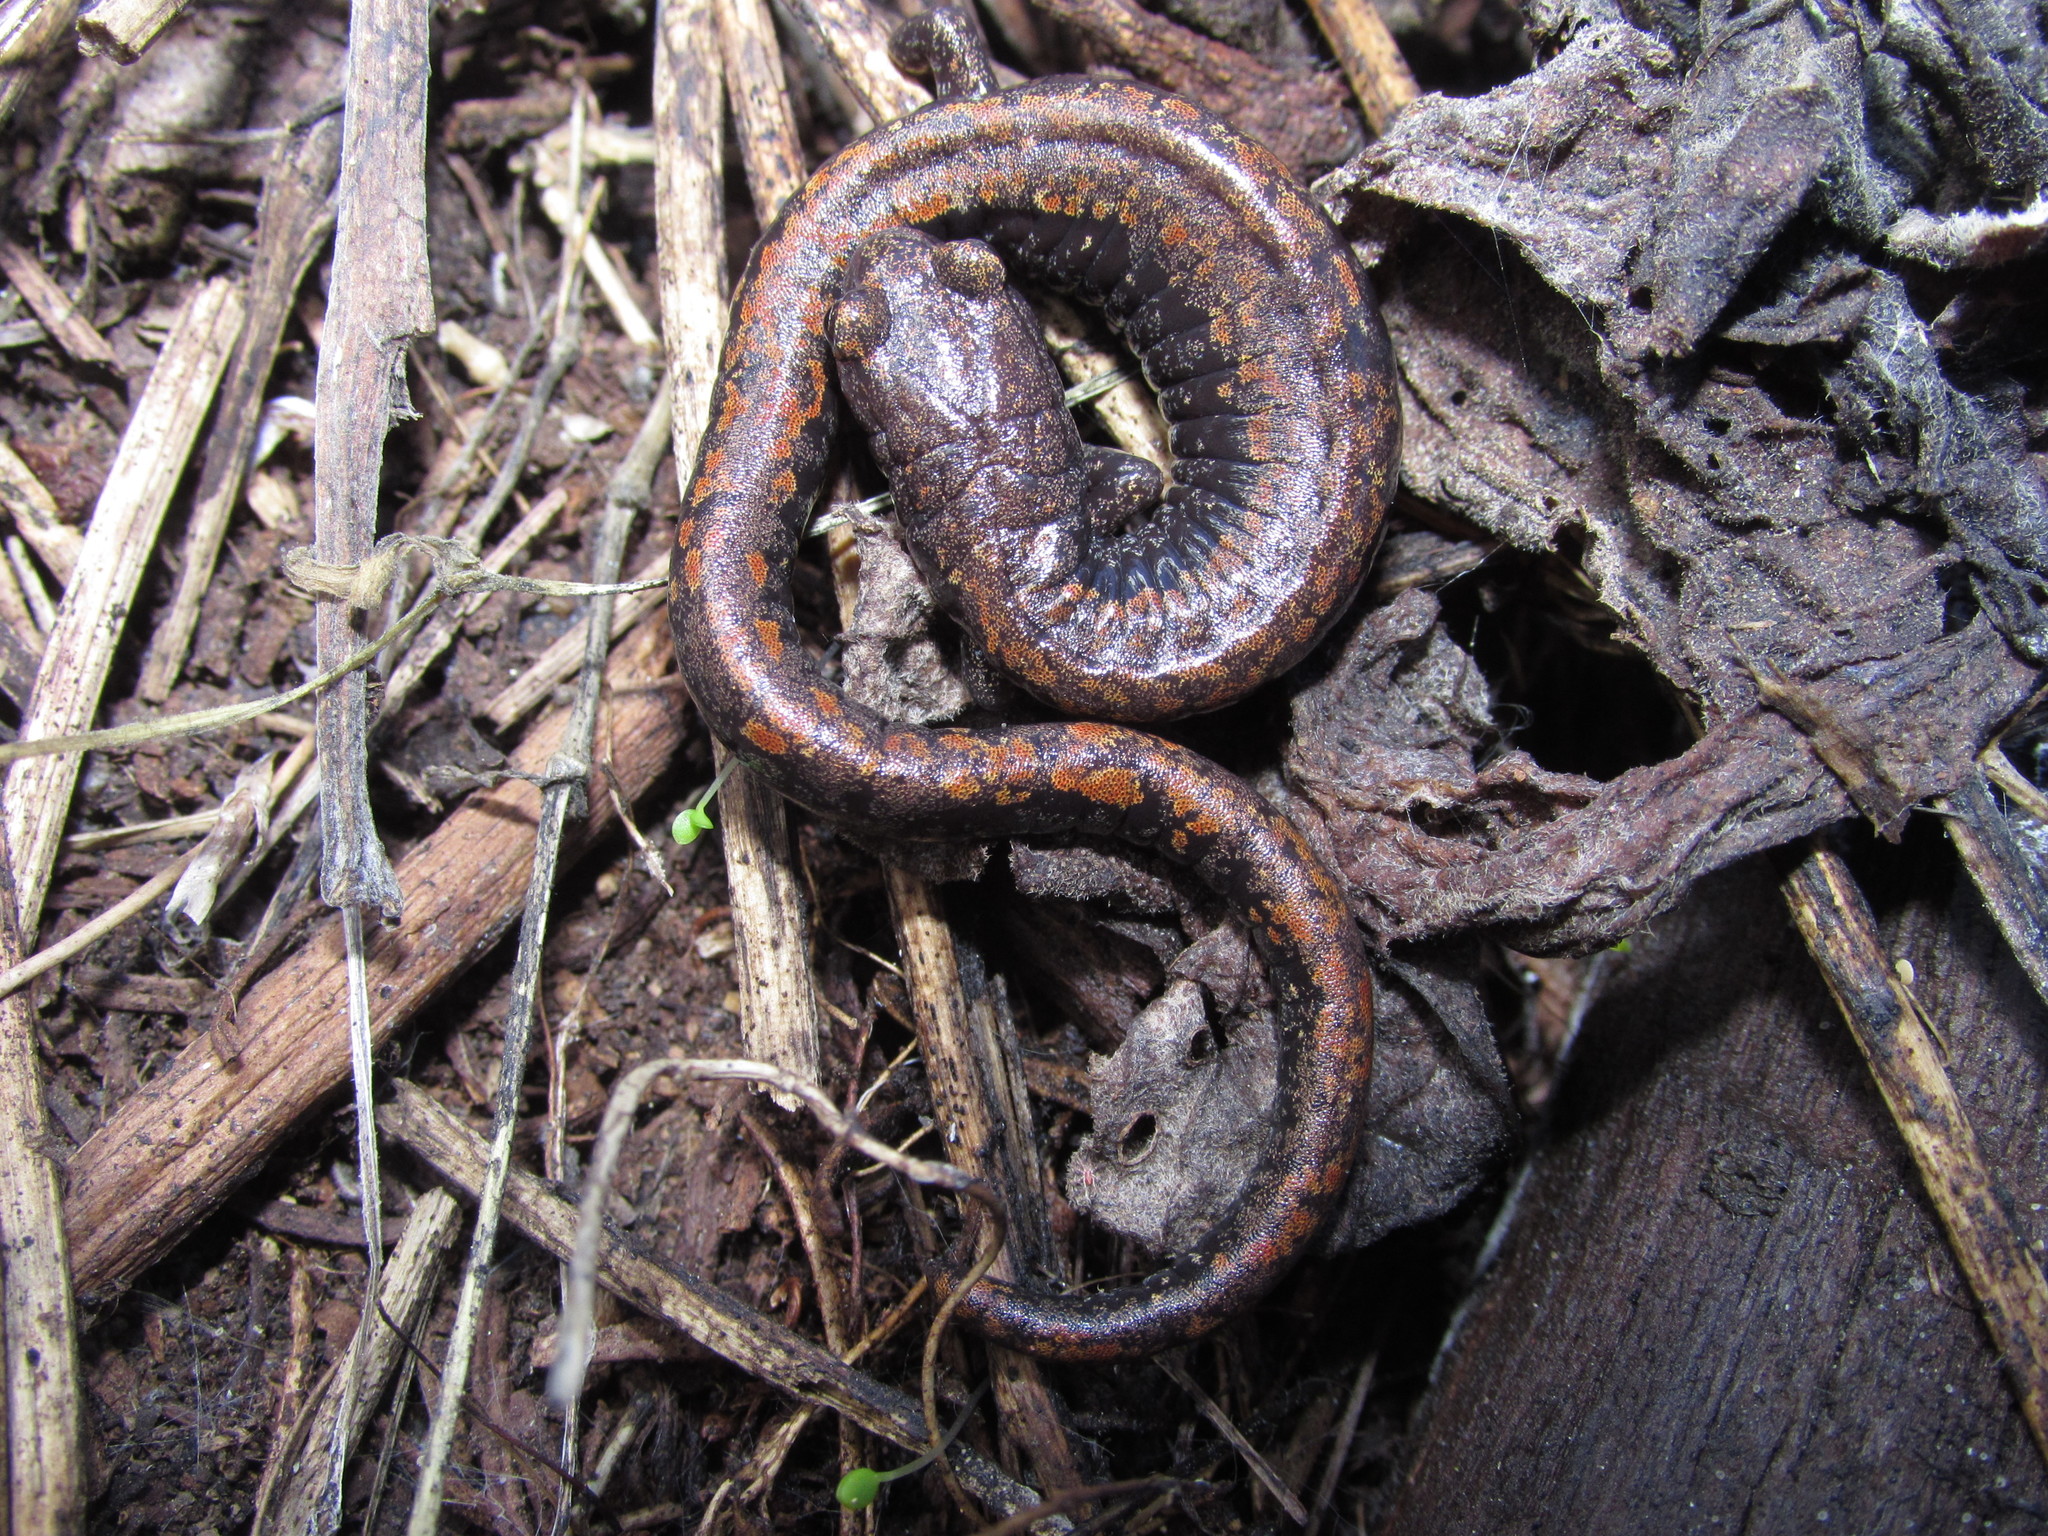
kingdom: Animalia
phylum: Chordata
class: Amphibia
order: Caudata
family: Plethodontidae
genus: Batrachoseps
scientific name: Batrachoseps wrighti
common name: Oregon slender salamander
